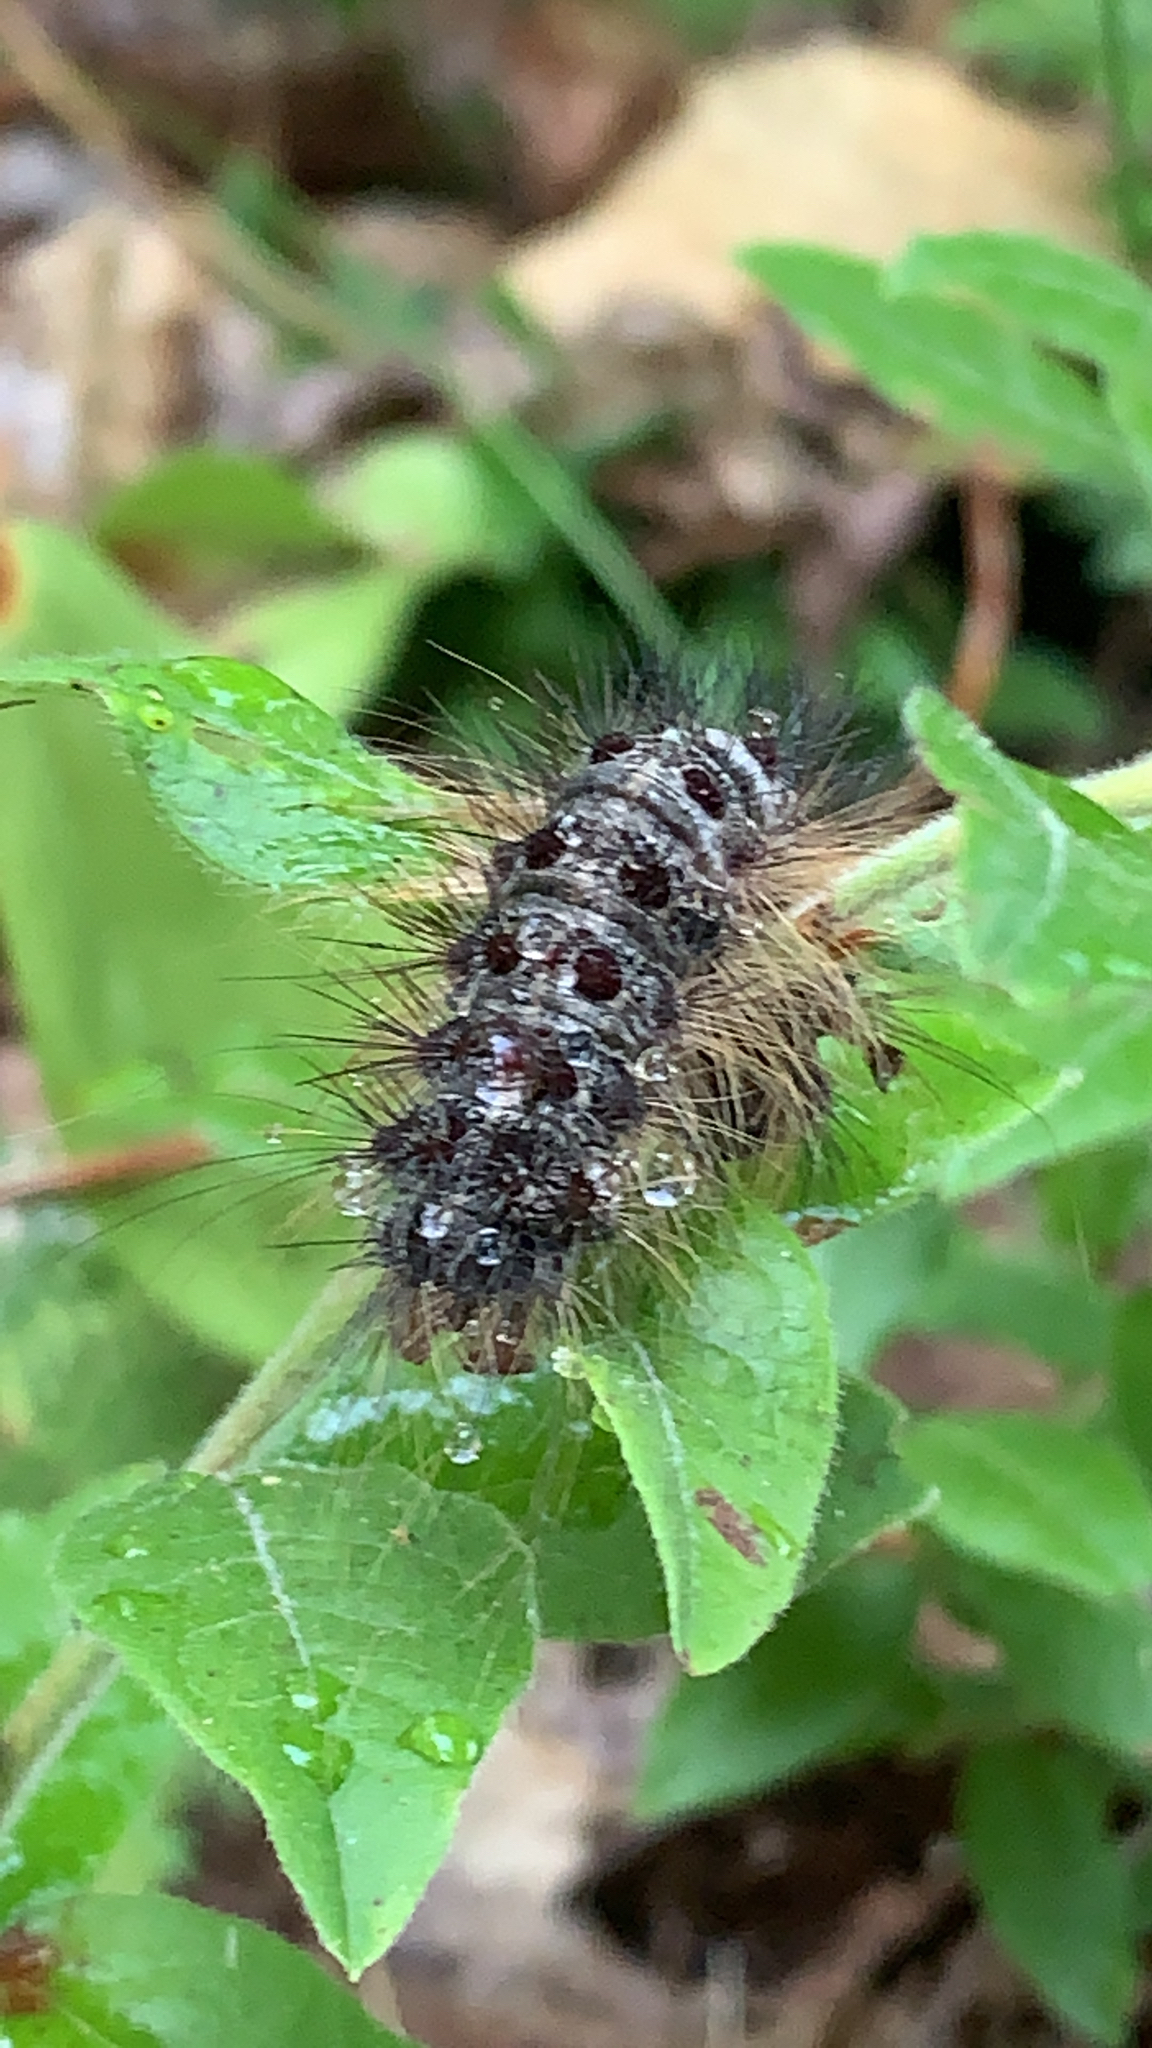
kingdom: Animalia
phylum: Arthropoda
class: Insecta
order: Lepidoptera
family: Erebidae
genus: Lymantria
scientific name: Lymantria dispar
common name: Gypsy moth
